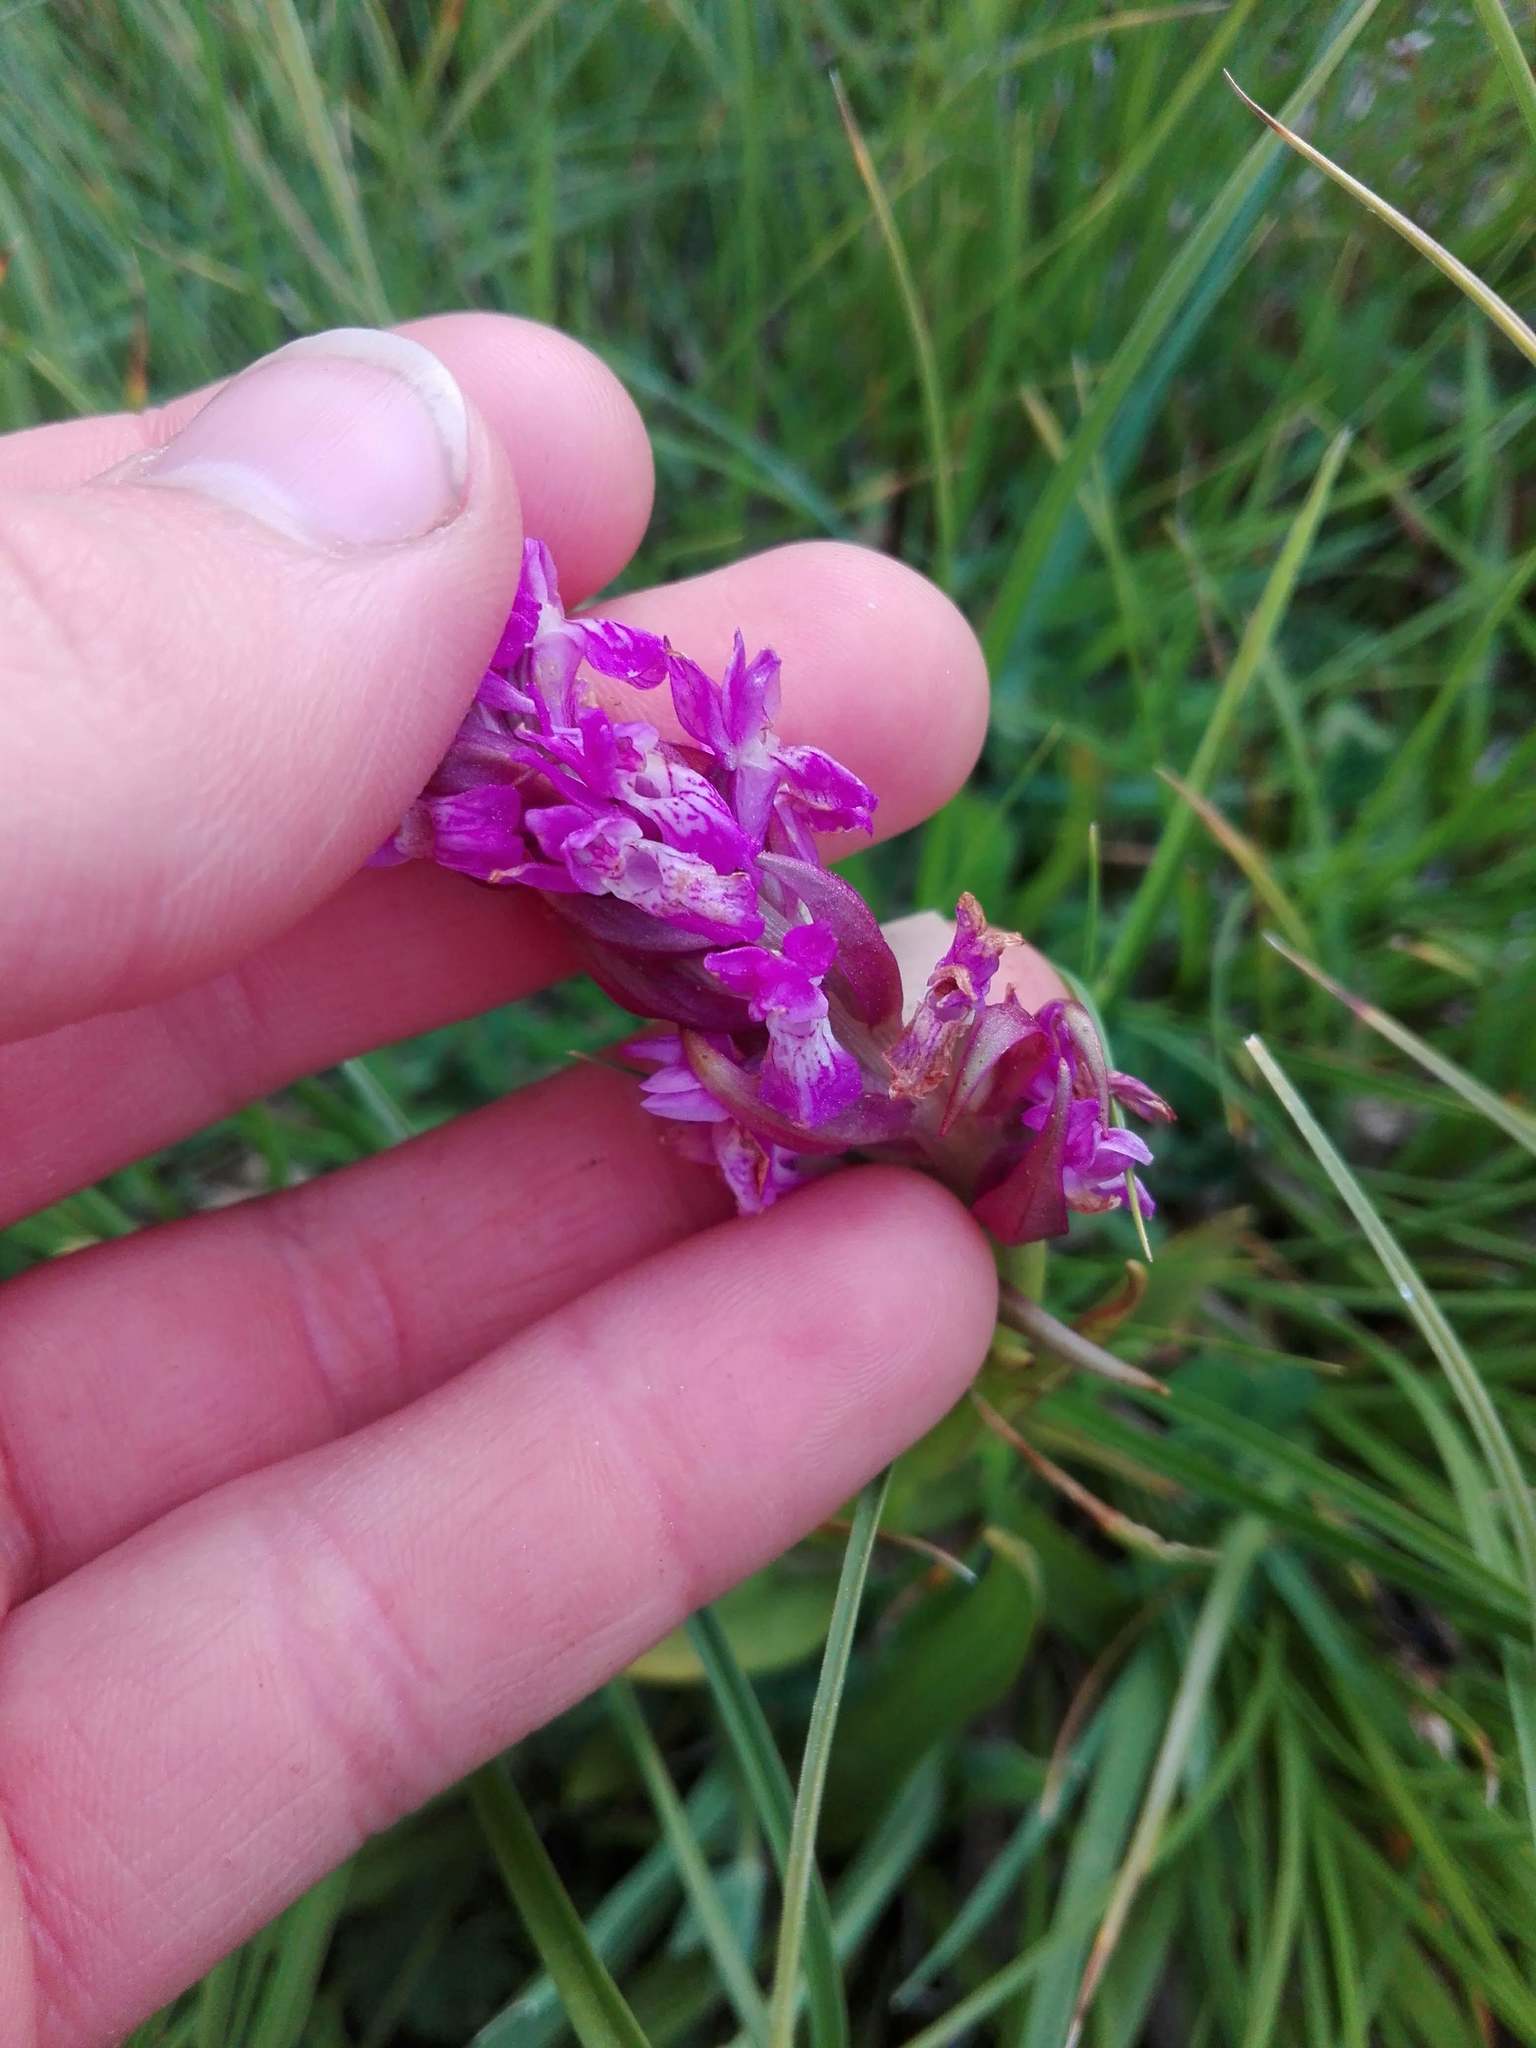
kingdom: Plantae
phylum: Tracheophyta
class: Liliopsida
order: Asparagales
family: Orchidaceae
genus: Dactylorhiza
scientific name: Dactylorhiza incarnata
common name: Early marsh-orchid
